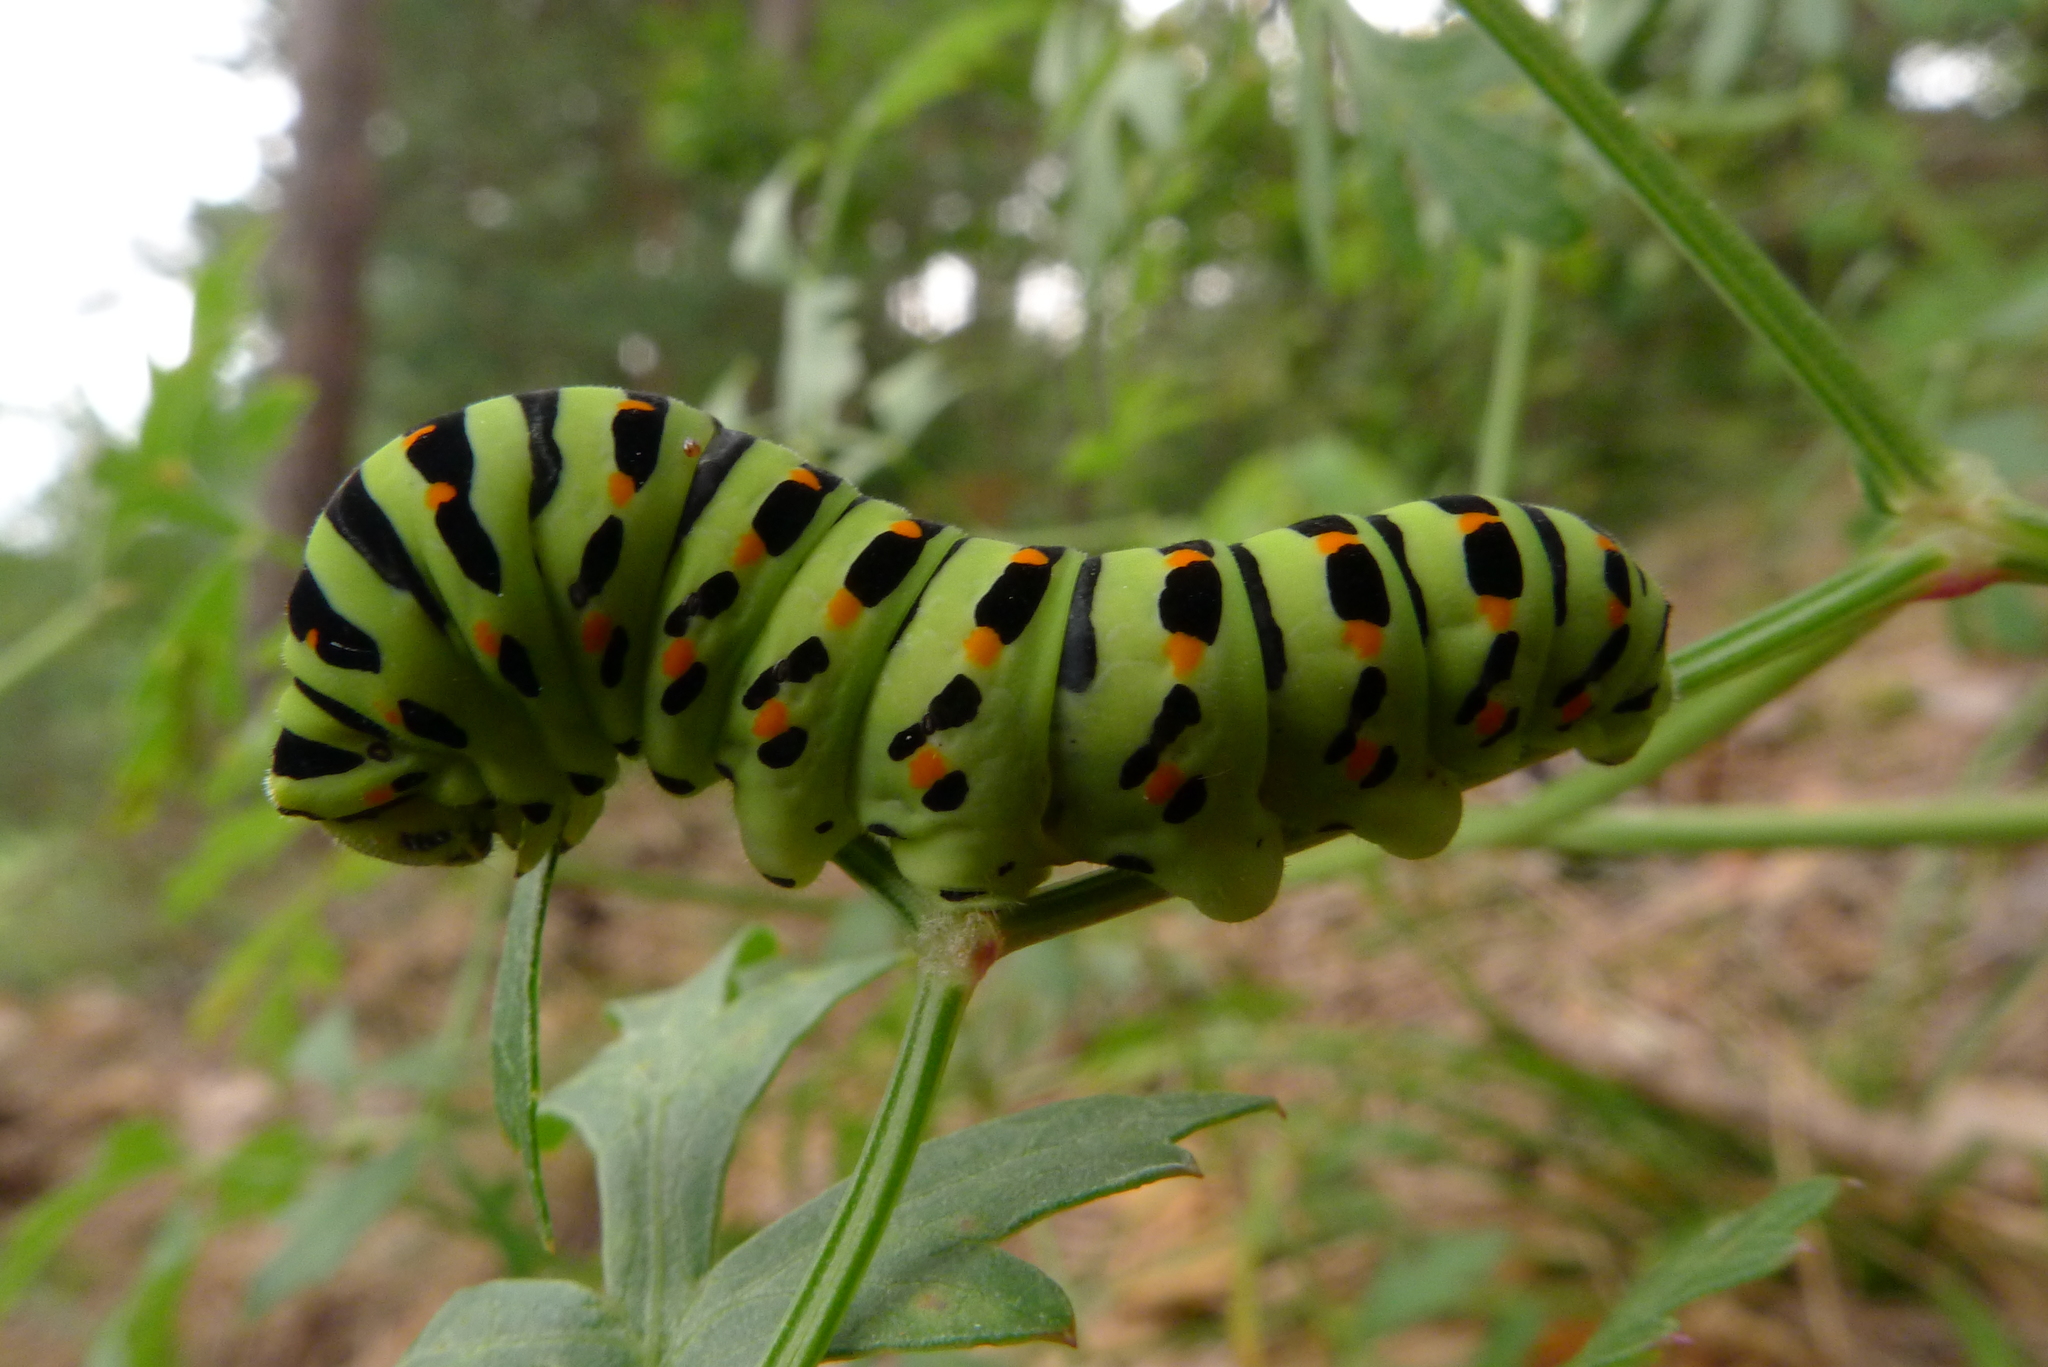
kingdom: Animalia
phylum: Arthropoda
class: Insecta
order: Lepidoptera
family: Papilionidae
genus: Papilio
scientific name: Papilio machaon
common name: Swallowtail
